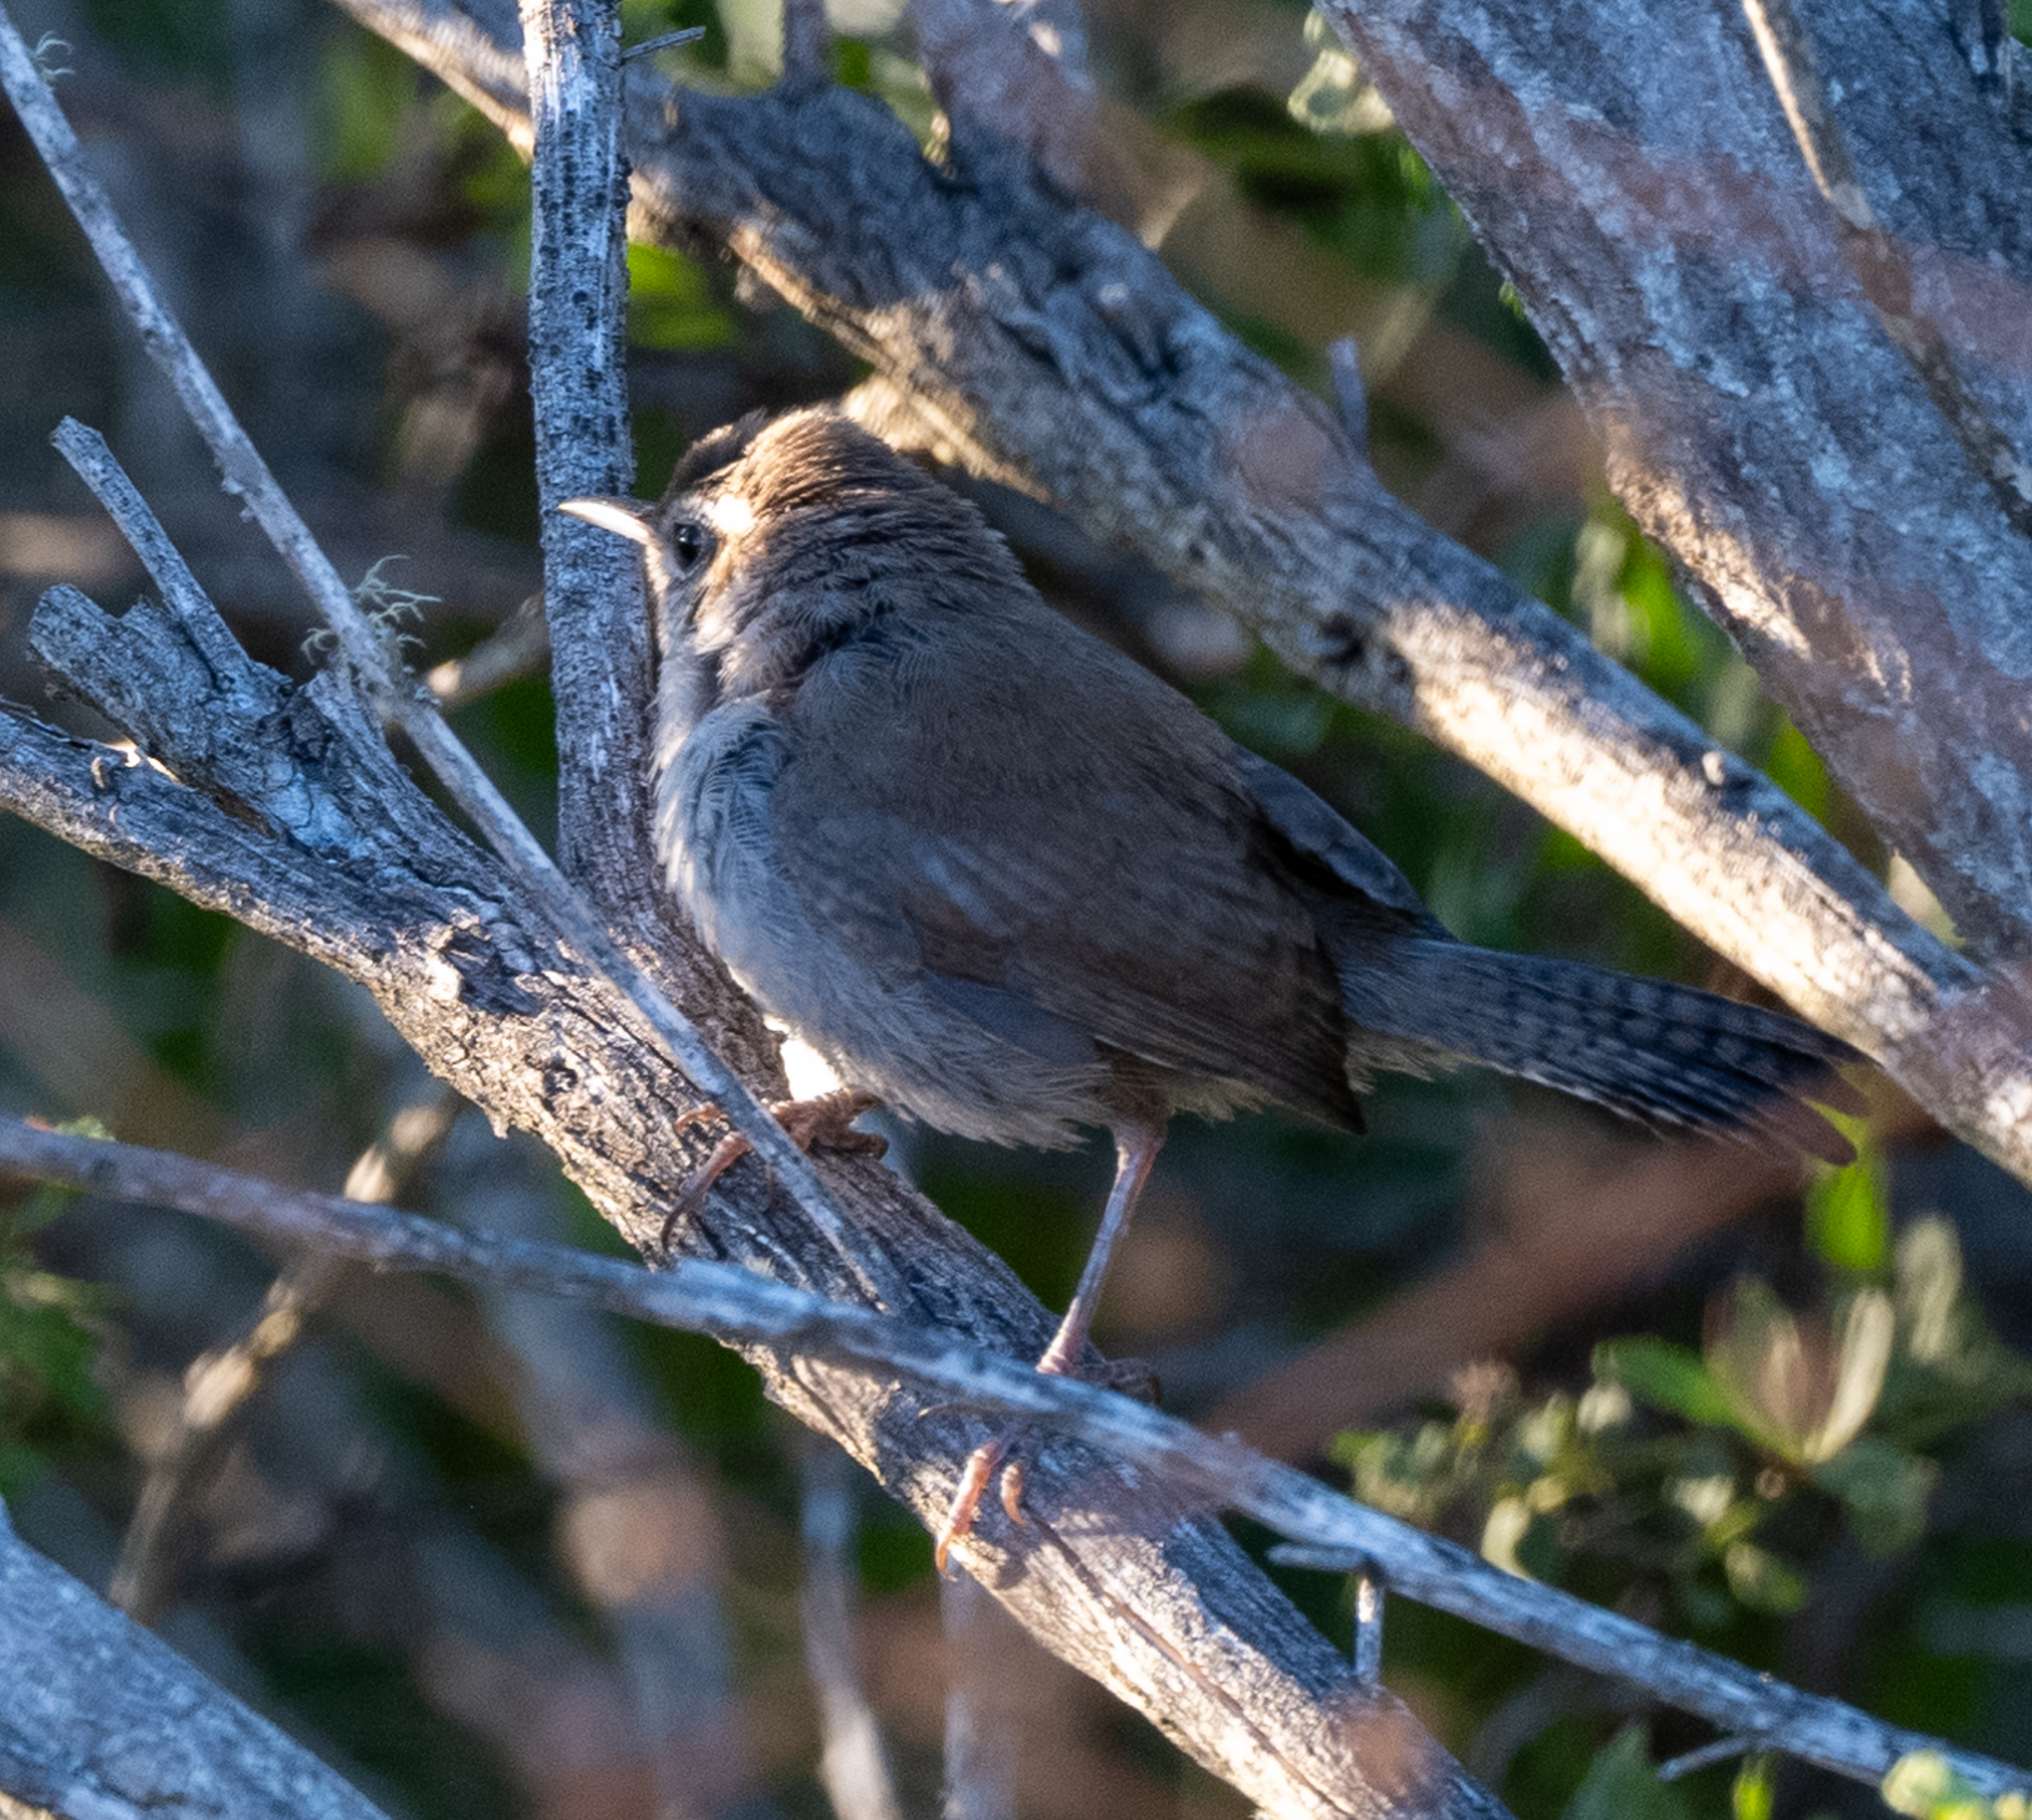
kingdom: Animalia
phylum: Chordata
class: Aves
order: Passeriformes
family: Troglodytidae
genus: Thryomanes
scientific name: Thryomanes bewickii
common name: Bewick's wren
